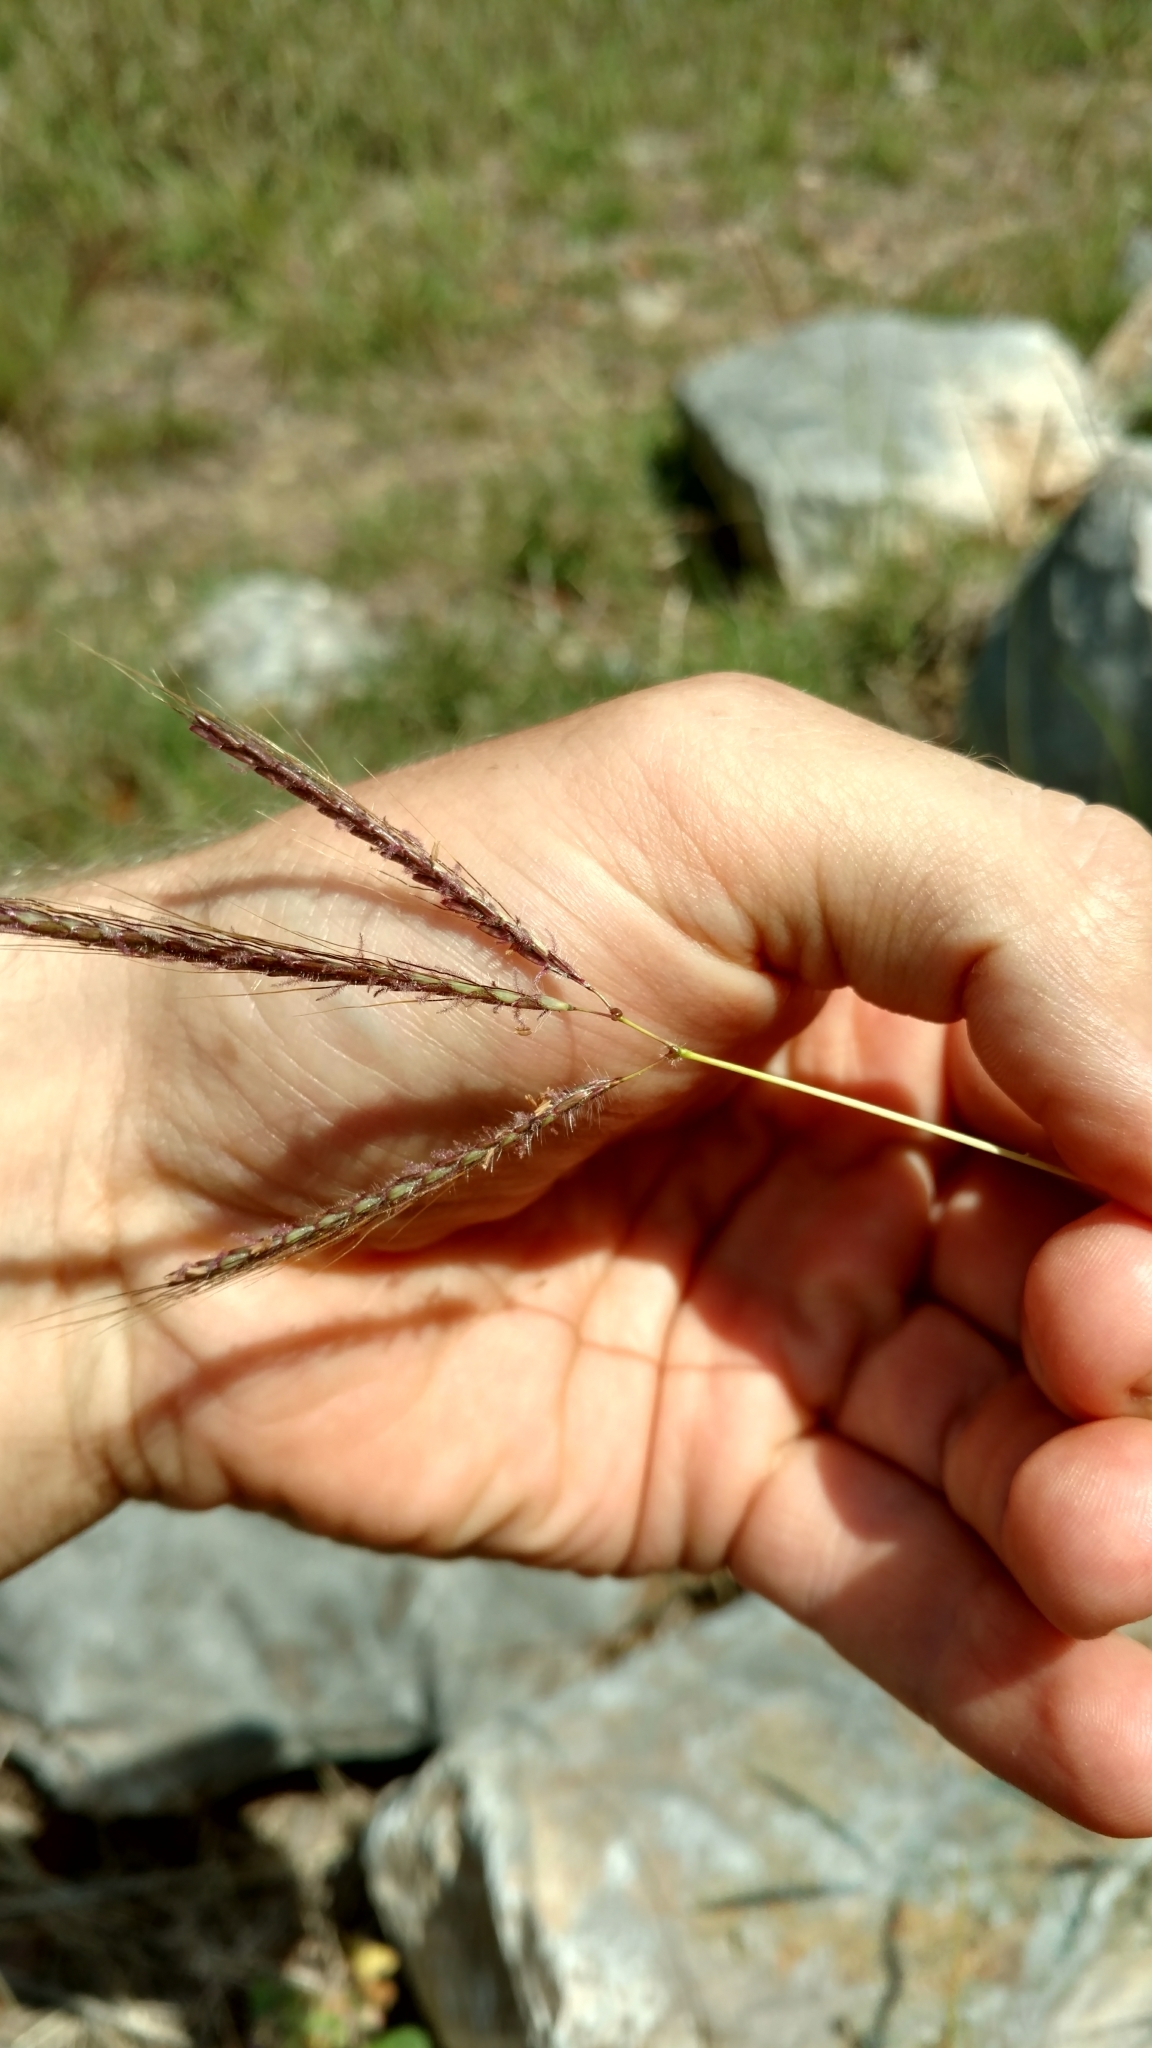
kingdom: Plantae
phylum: Tracheophyta
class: Liliopsida
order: Poales
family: Poaceae
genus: Dichanthium
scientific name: Dichanthium annulatum
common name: Kleberg's bluestem
